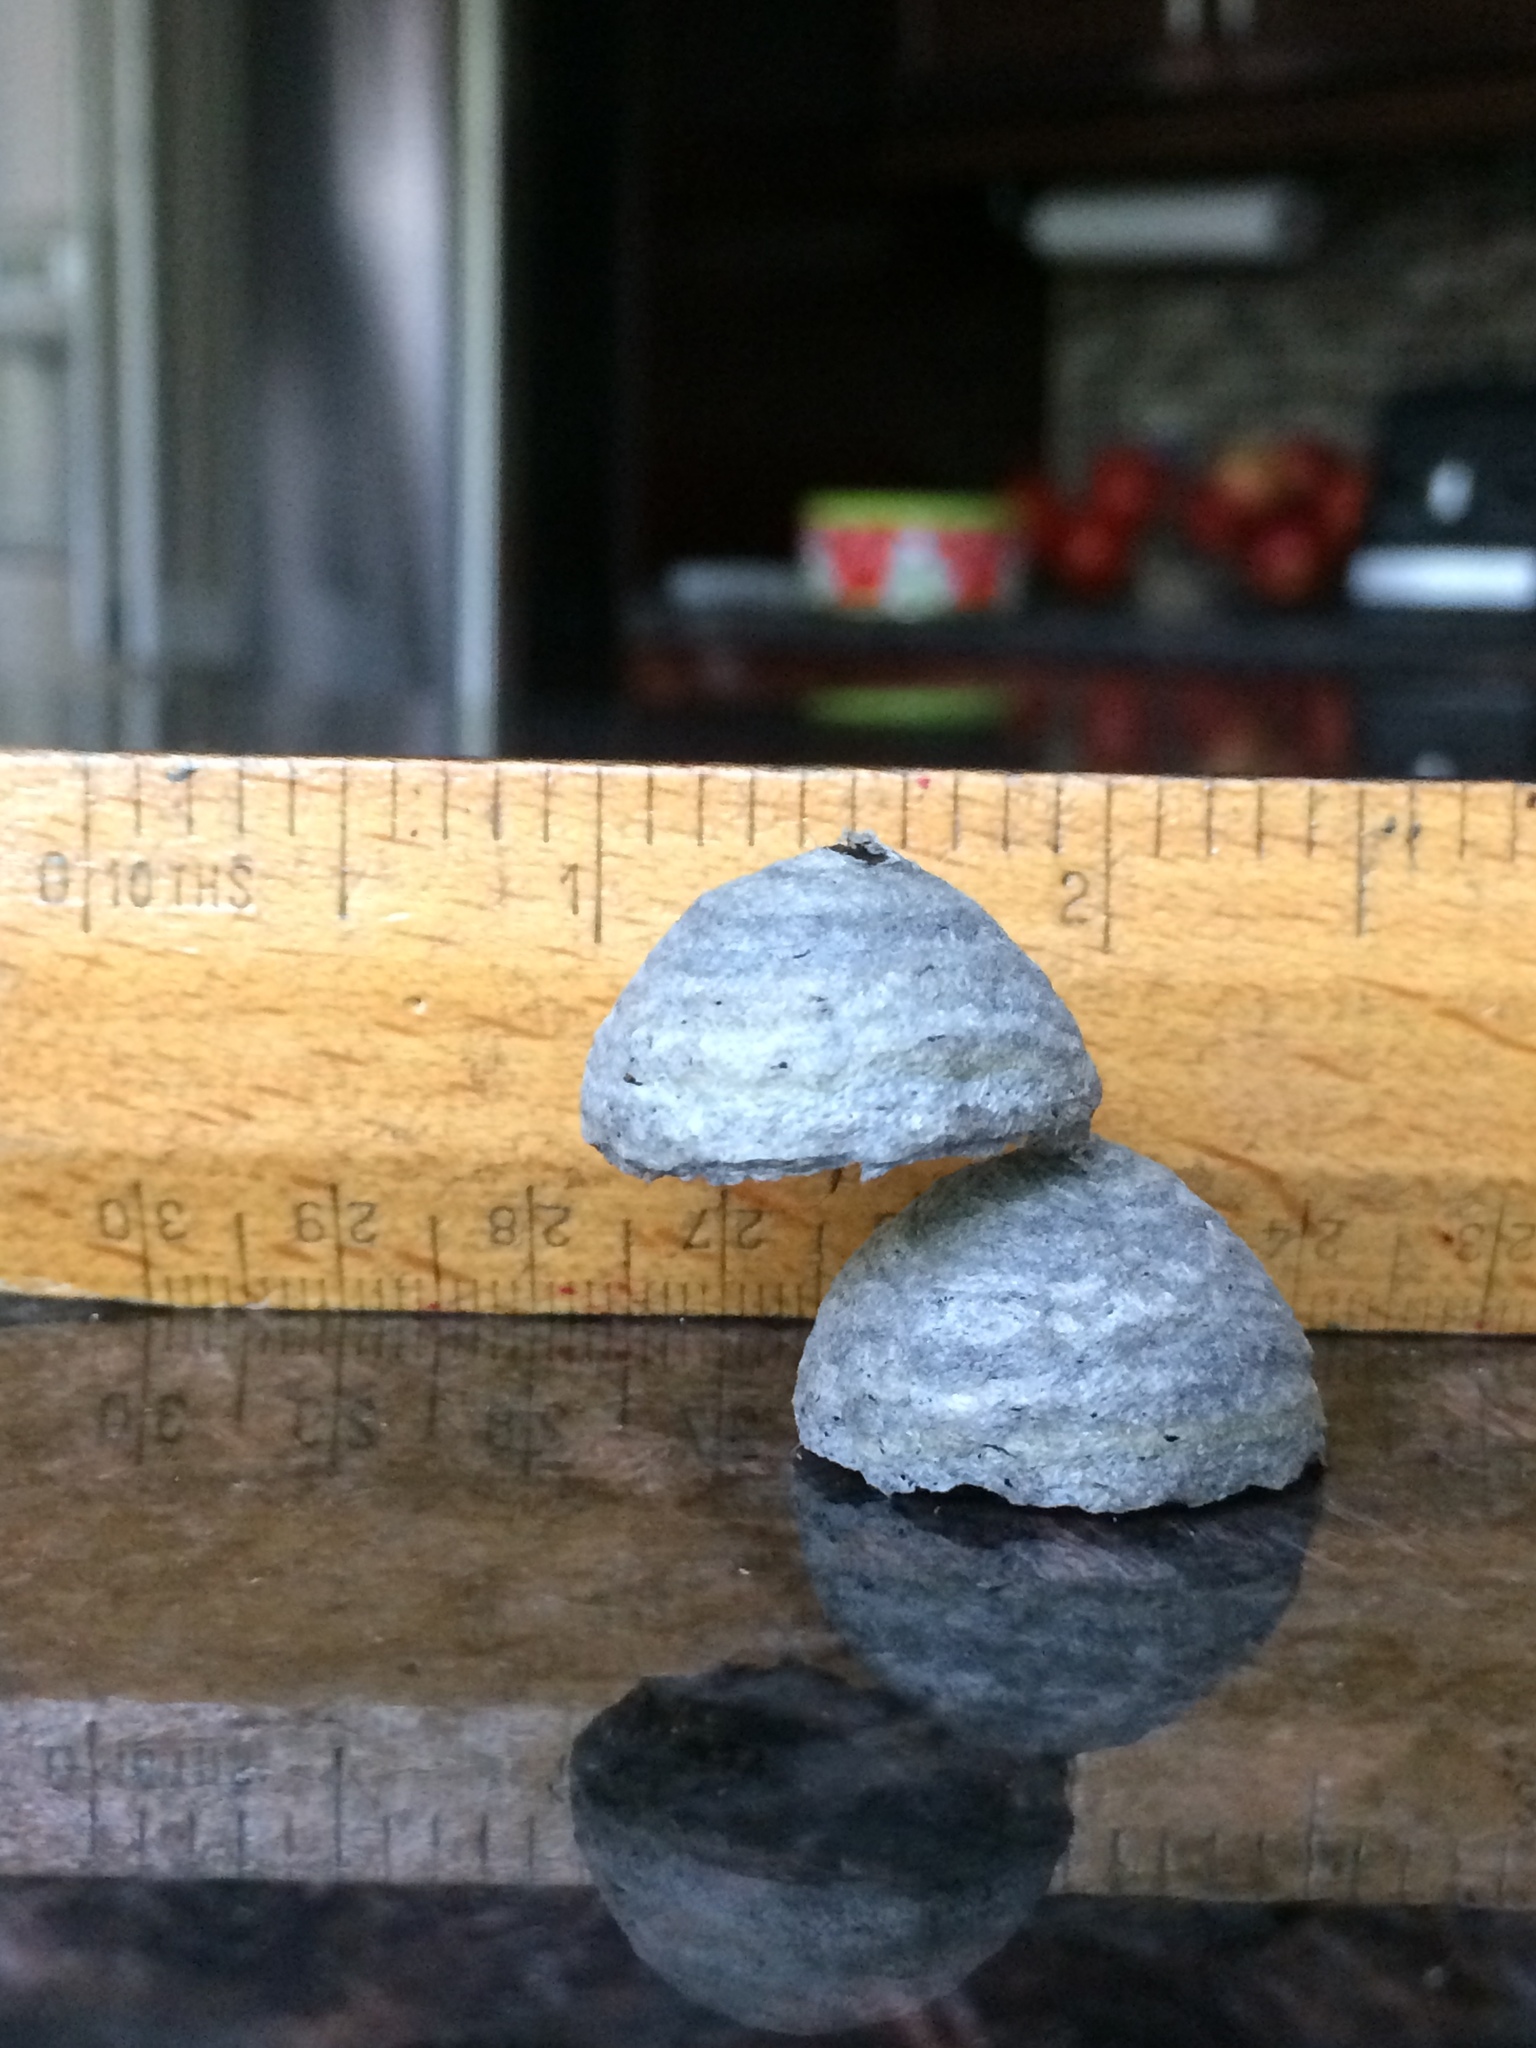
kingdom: Animalia
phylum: Arthropoda
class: Insecta
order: Hymenoptera
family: Vespidae
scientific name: Vespidae
